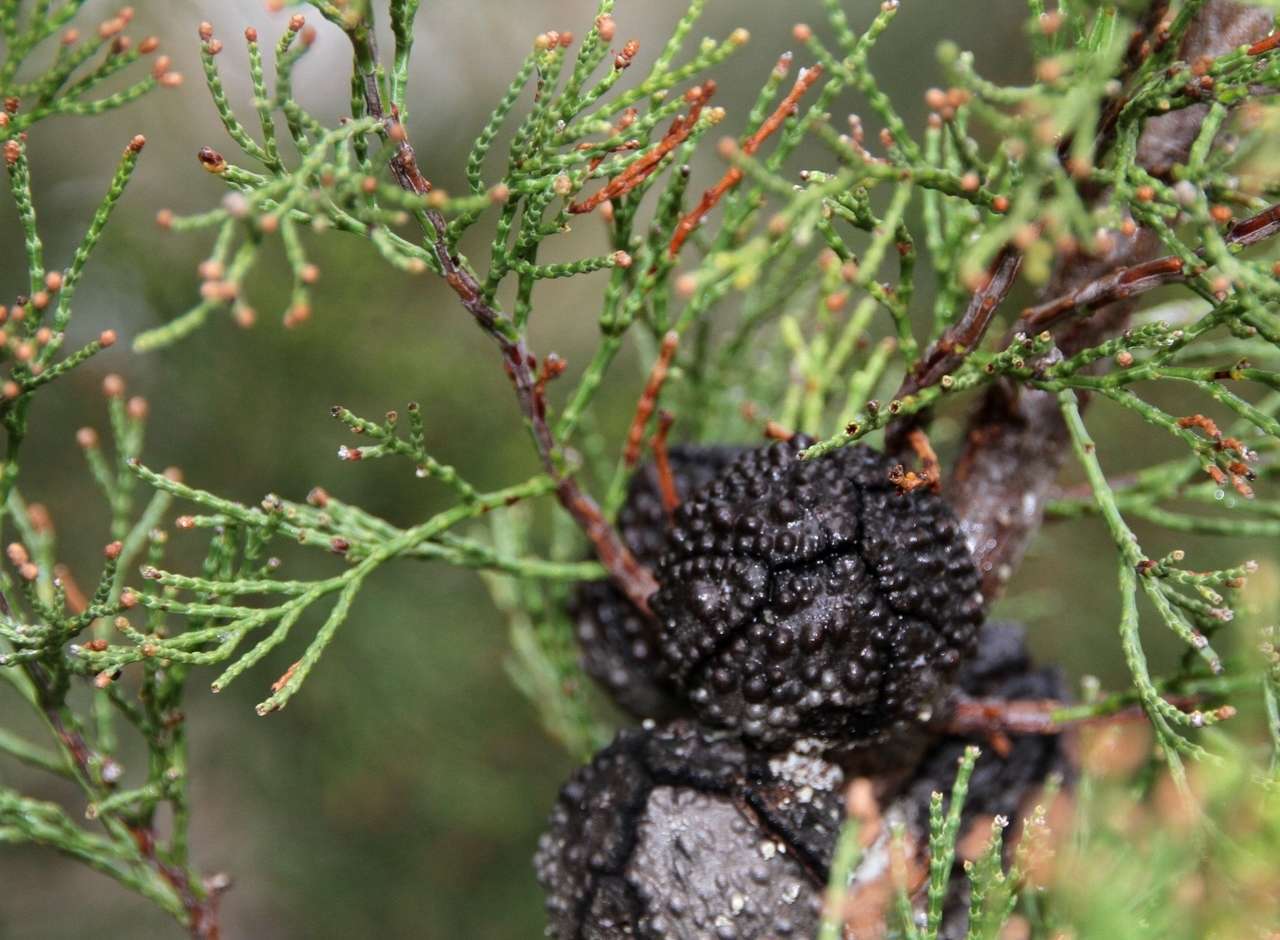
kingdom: Plantae
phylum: Tracheophyta
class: Pinopsida
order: Pinales
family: Cupressaceae
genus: Callitris
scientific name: Callitris verrucosa
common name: Scrub cypress-pine
